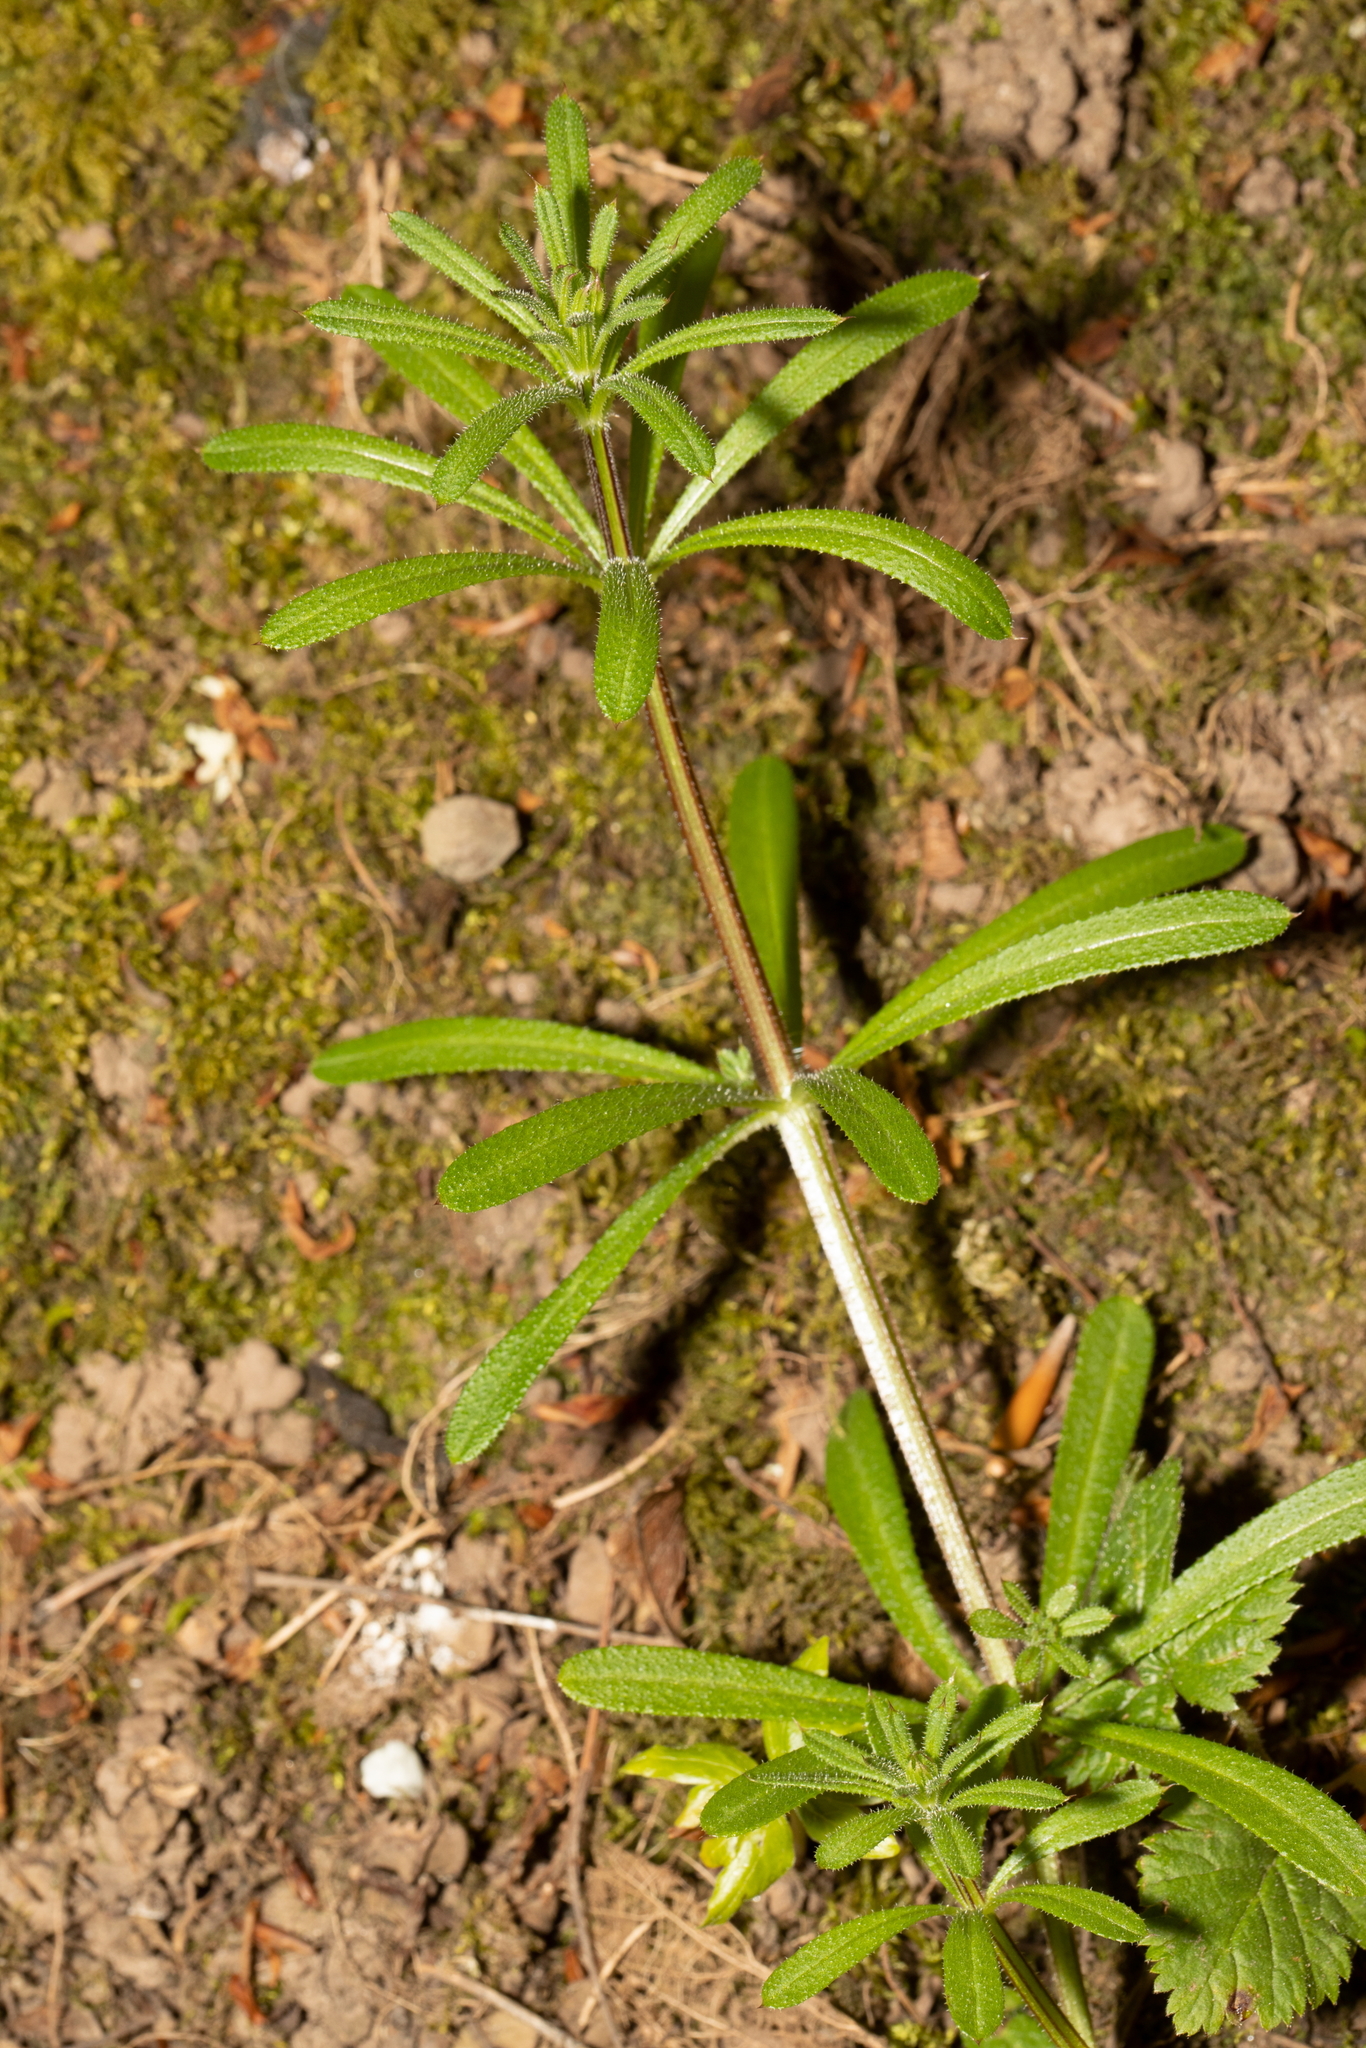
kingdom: Plantae
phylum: Tracheophyta
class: Magnoliopsida
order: Gentianales
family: Rubiaceae
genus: Galium
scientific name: Galium aparine
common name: Cleavers
